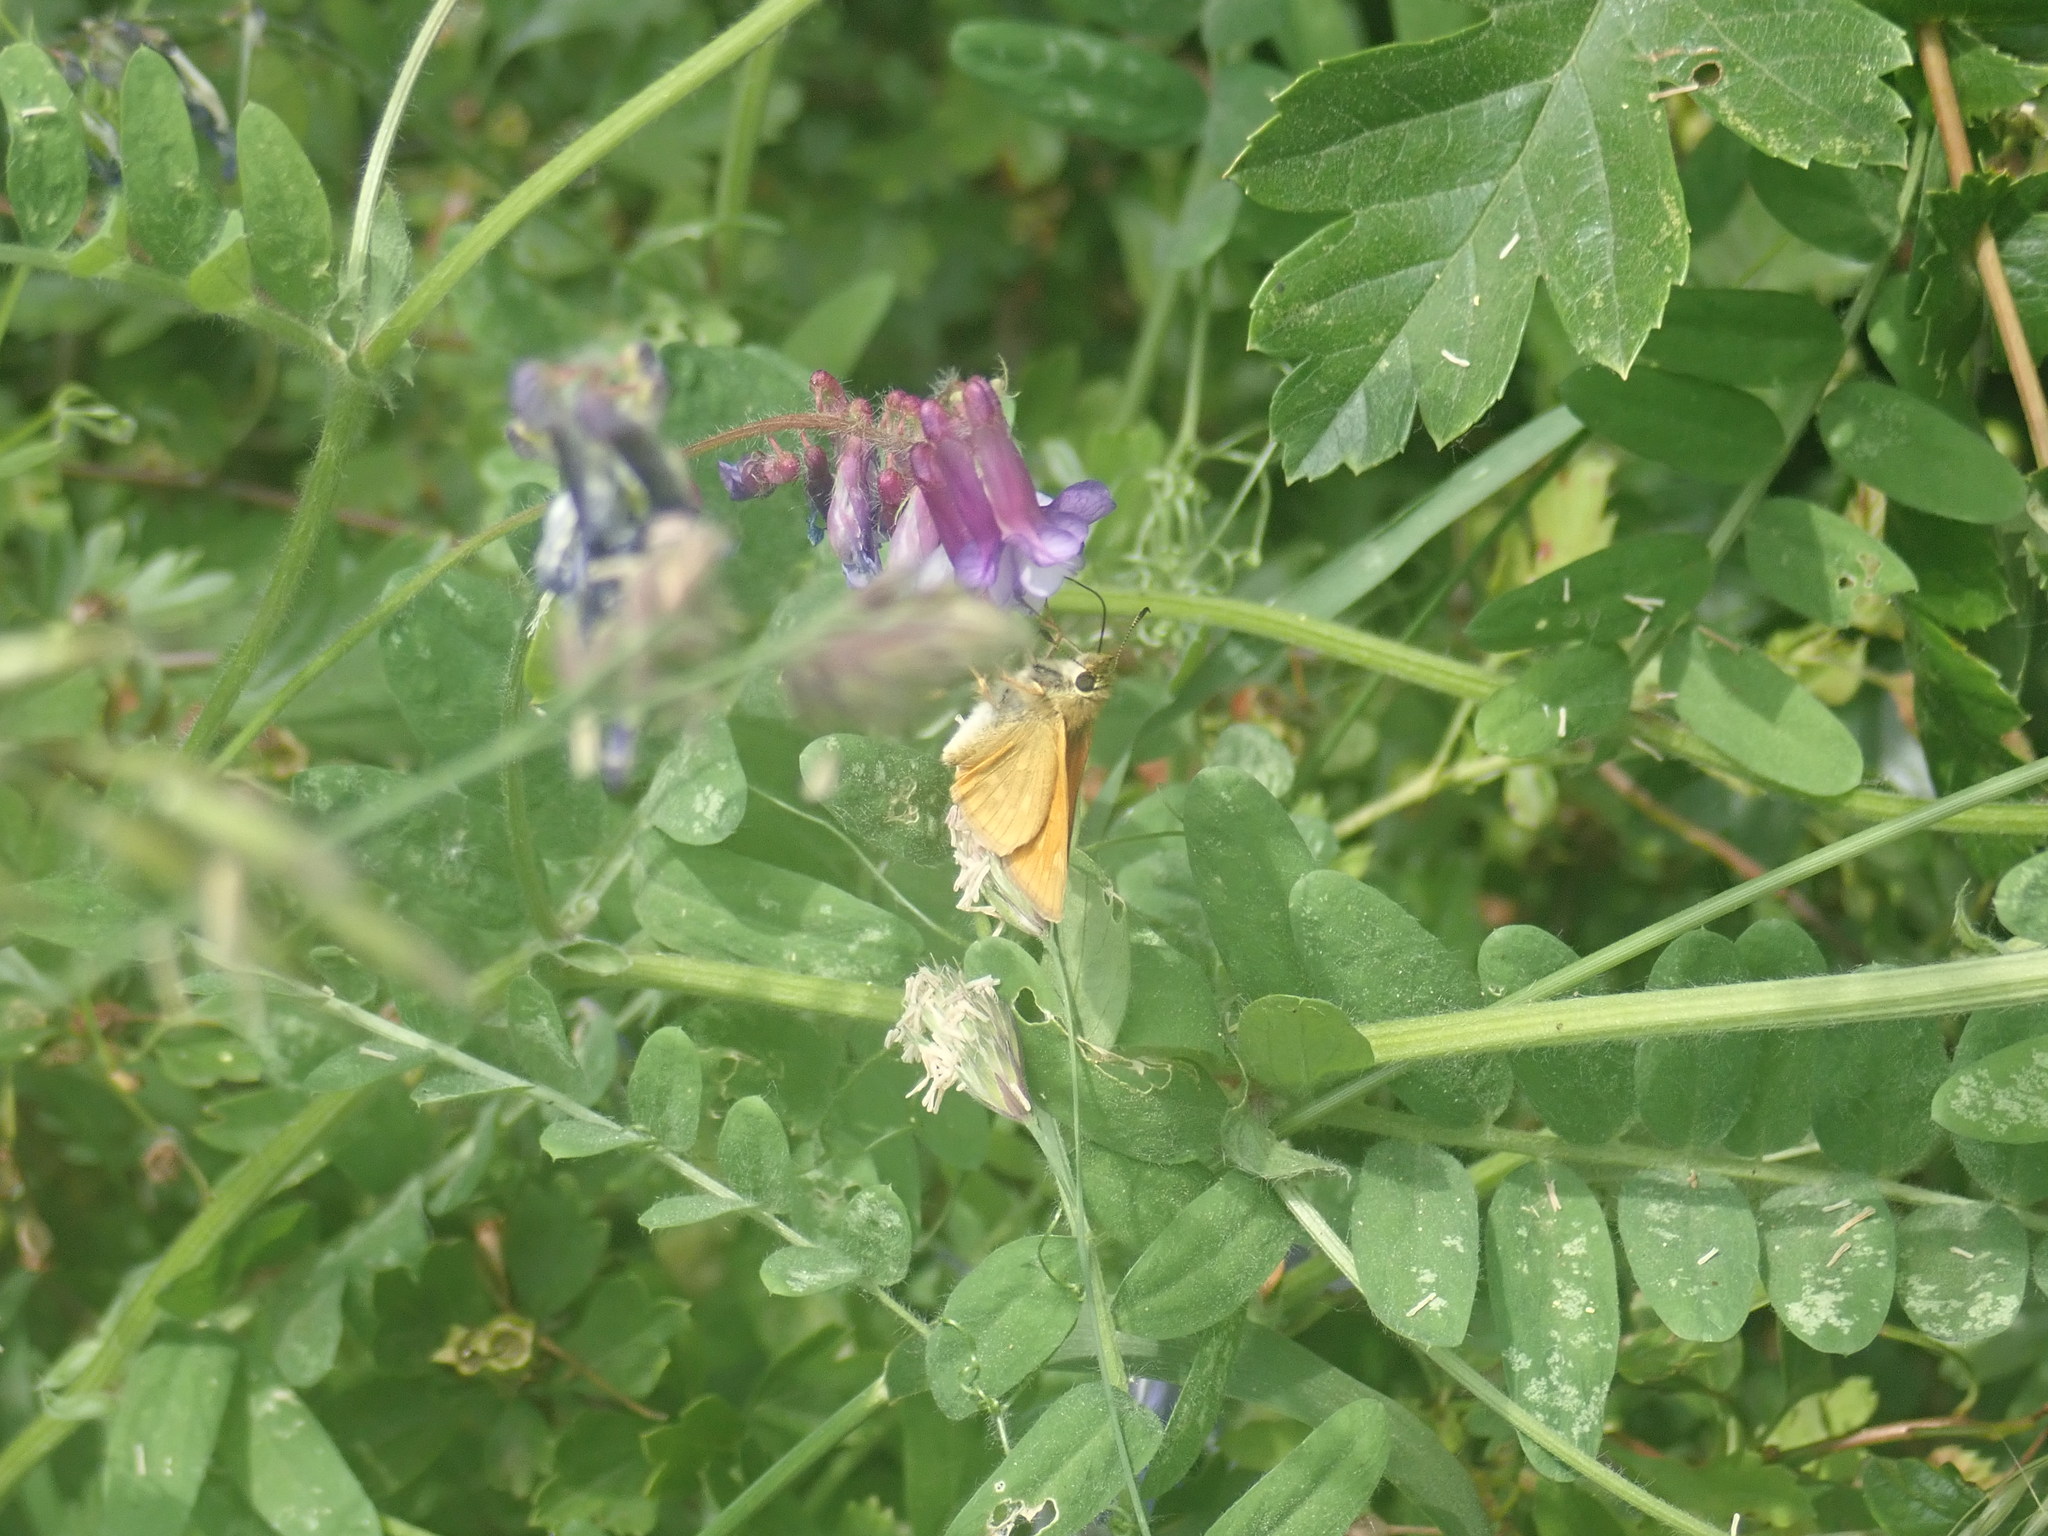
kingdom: Animalia
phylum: Arthropoda
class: Insecta
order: Lepidoptera
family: Hesperiidae
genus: Ochlodes
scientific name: Ochlodes venata
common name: Large skipper
